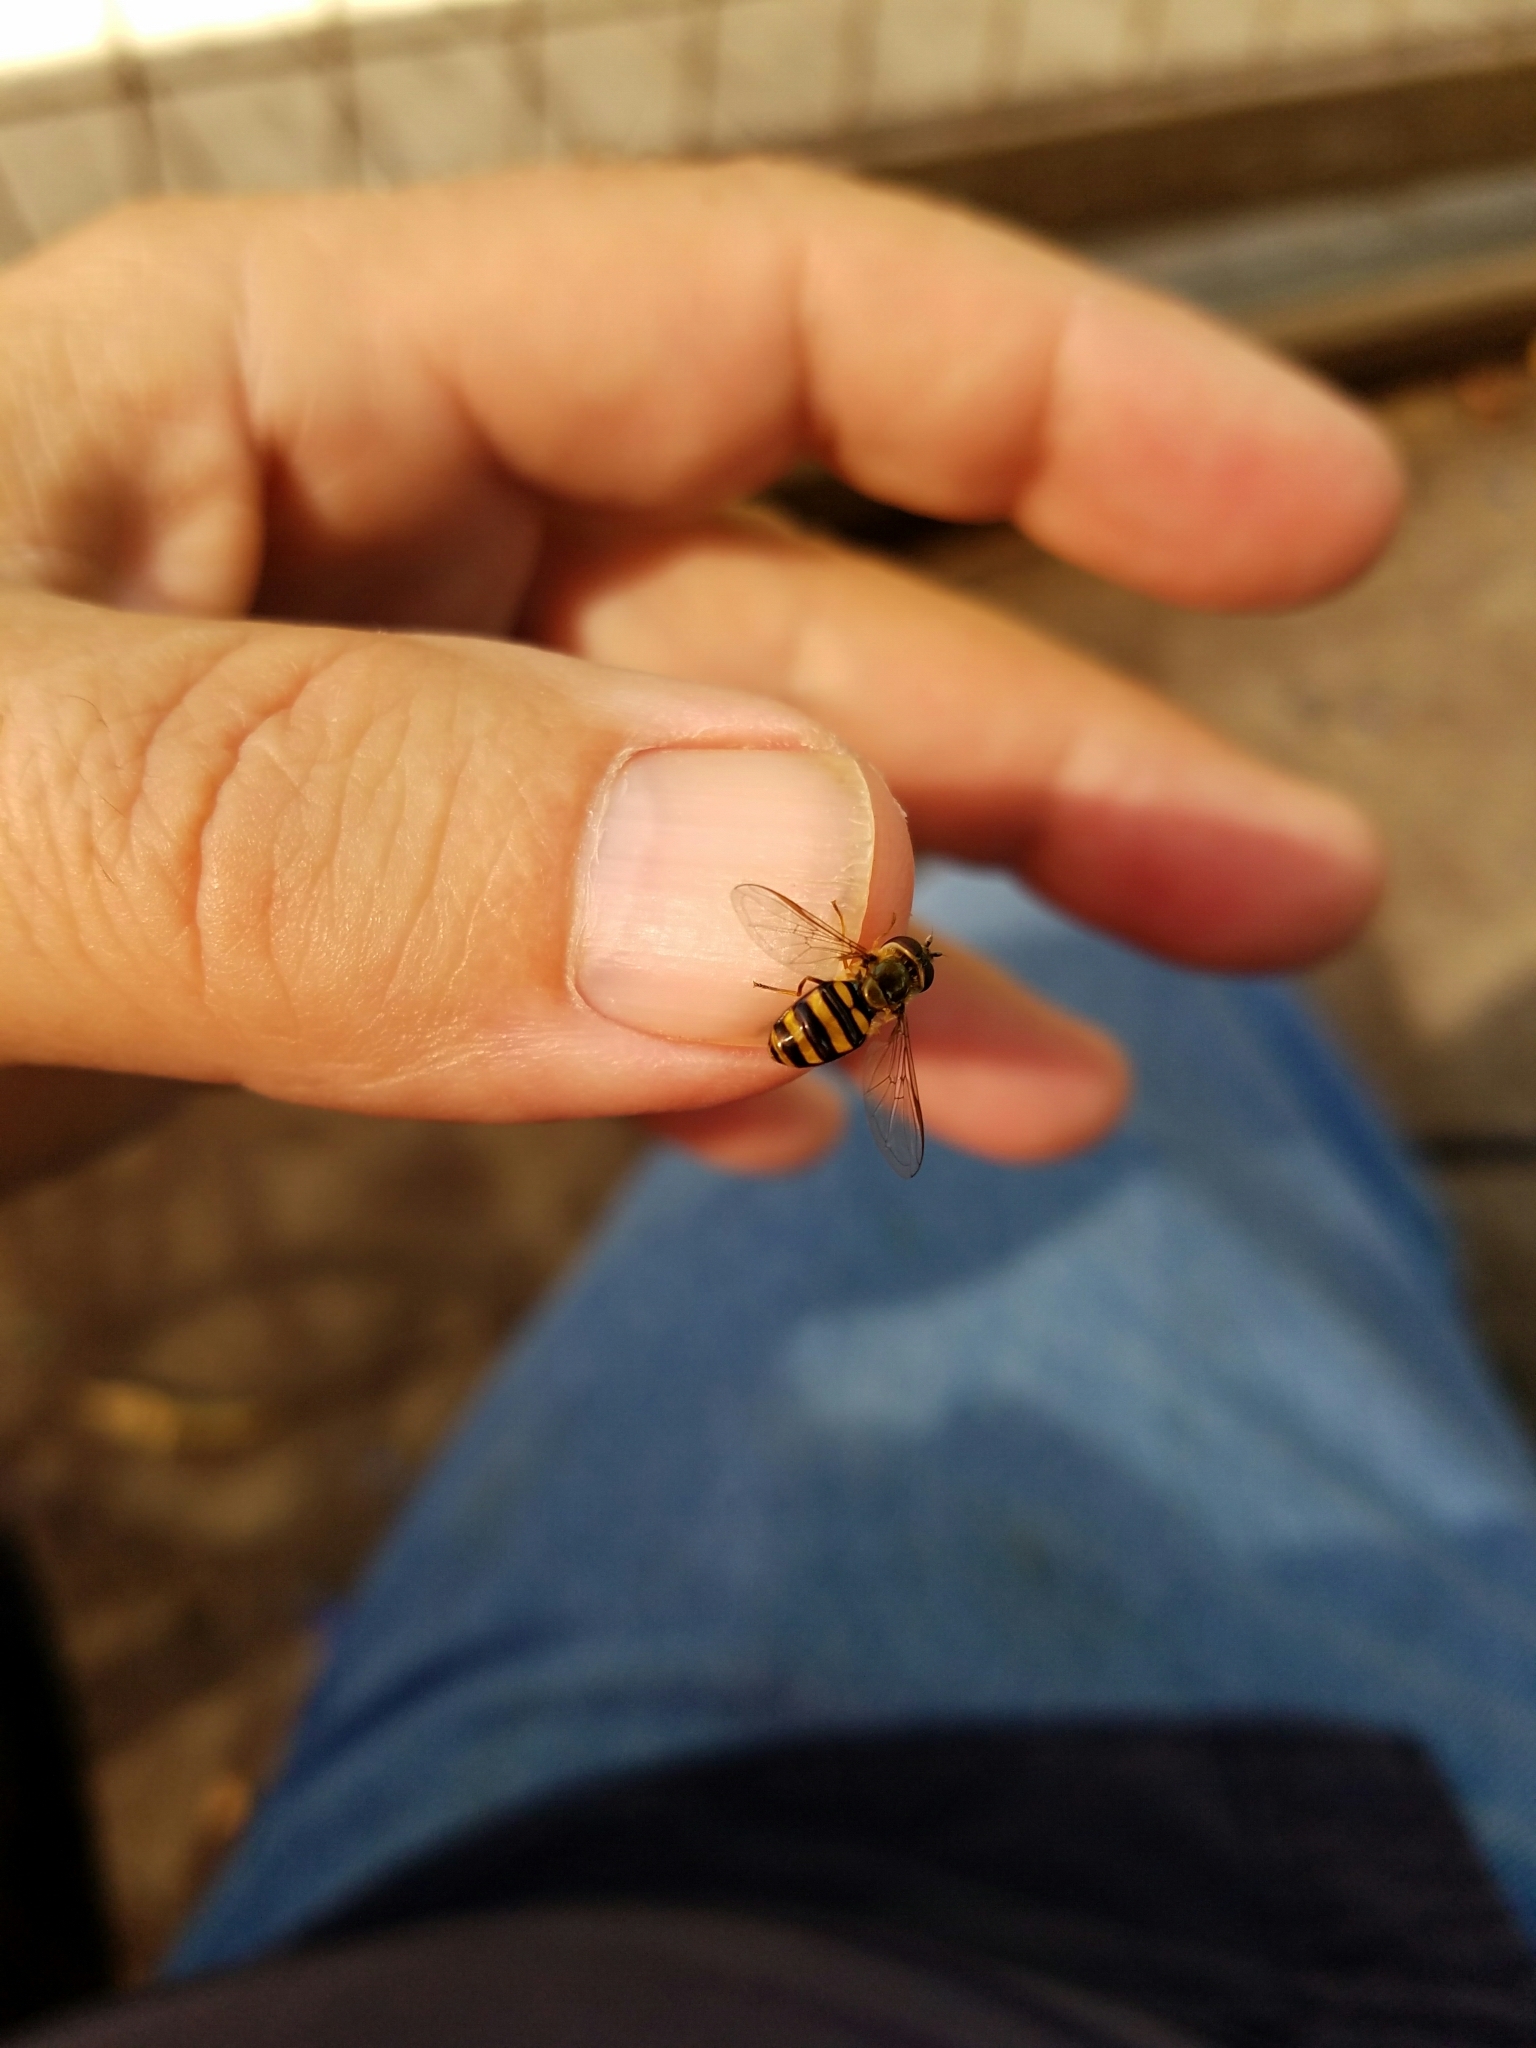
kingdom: Animalia
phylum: Arthropoda
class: Insecta
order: Diptera
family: Syrphidae
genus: Eupeodes
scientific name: Eupeodes
